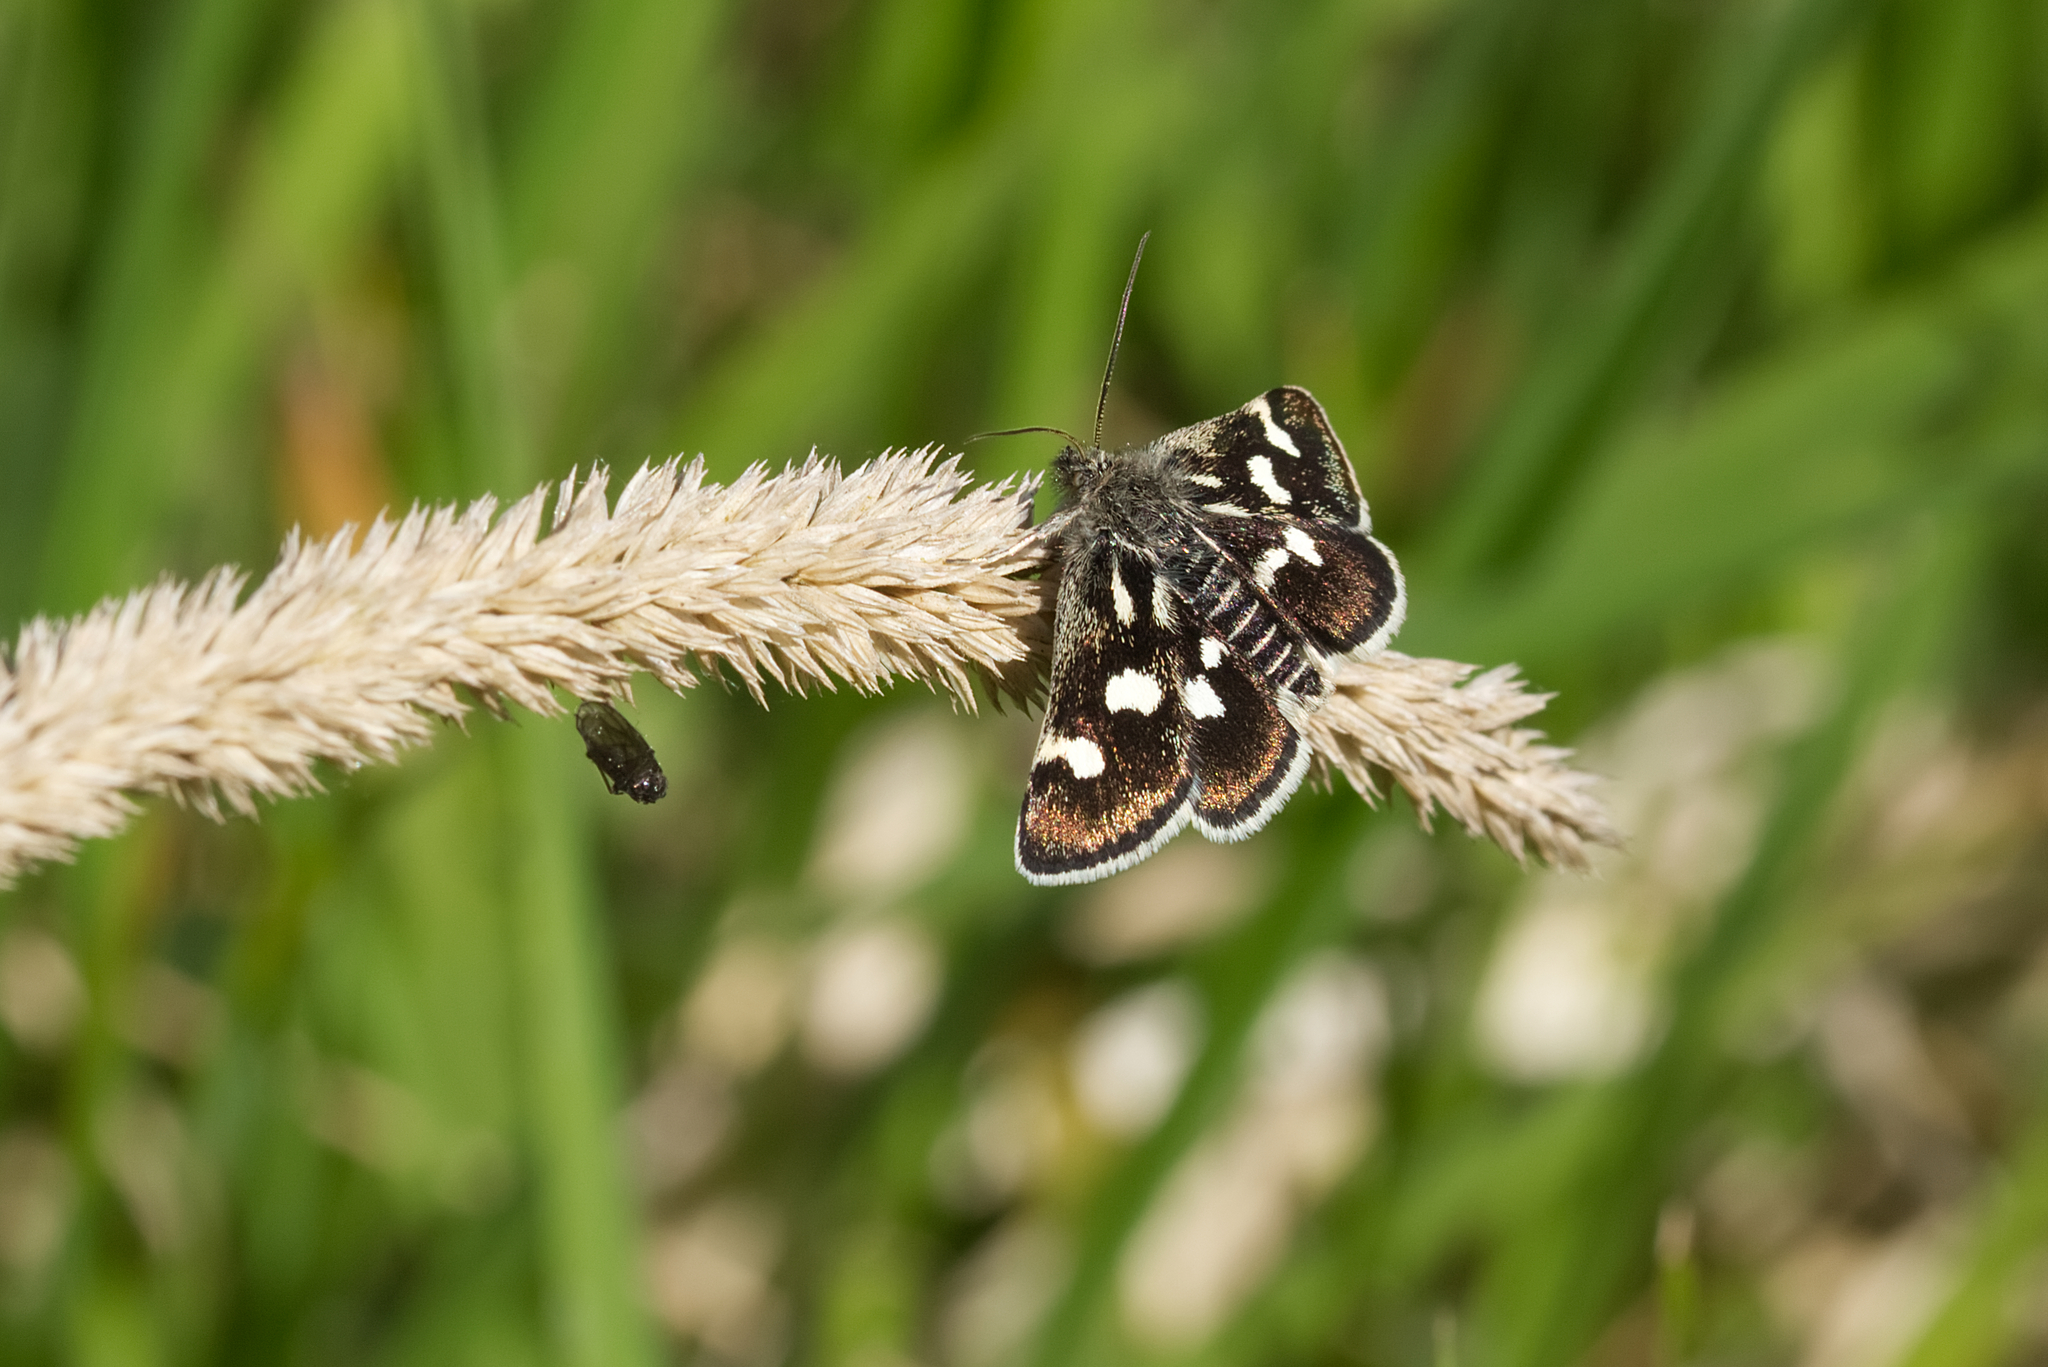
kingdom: Animalia
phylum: Arthropoda
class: Insecta
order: Lepidoptera
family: Crambidae
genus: Eurrhypis
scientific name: Eurrhypis pollinalis
